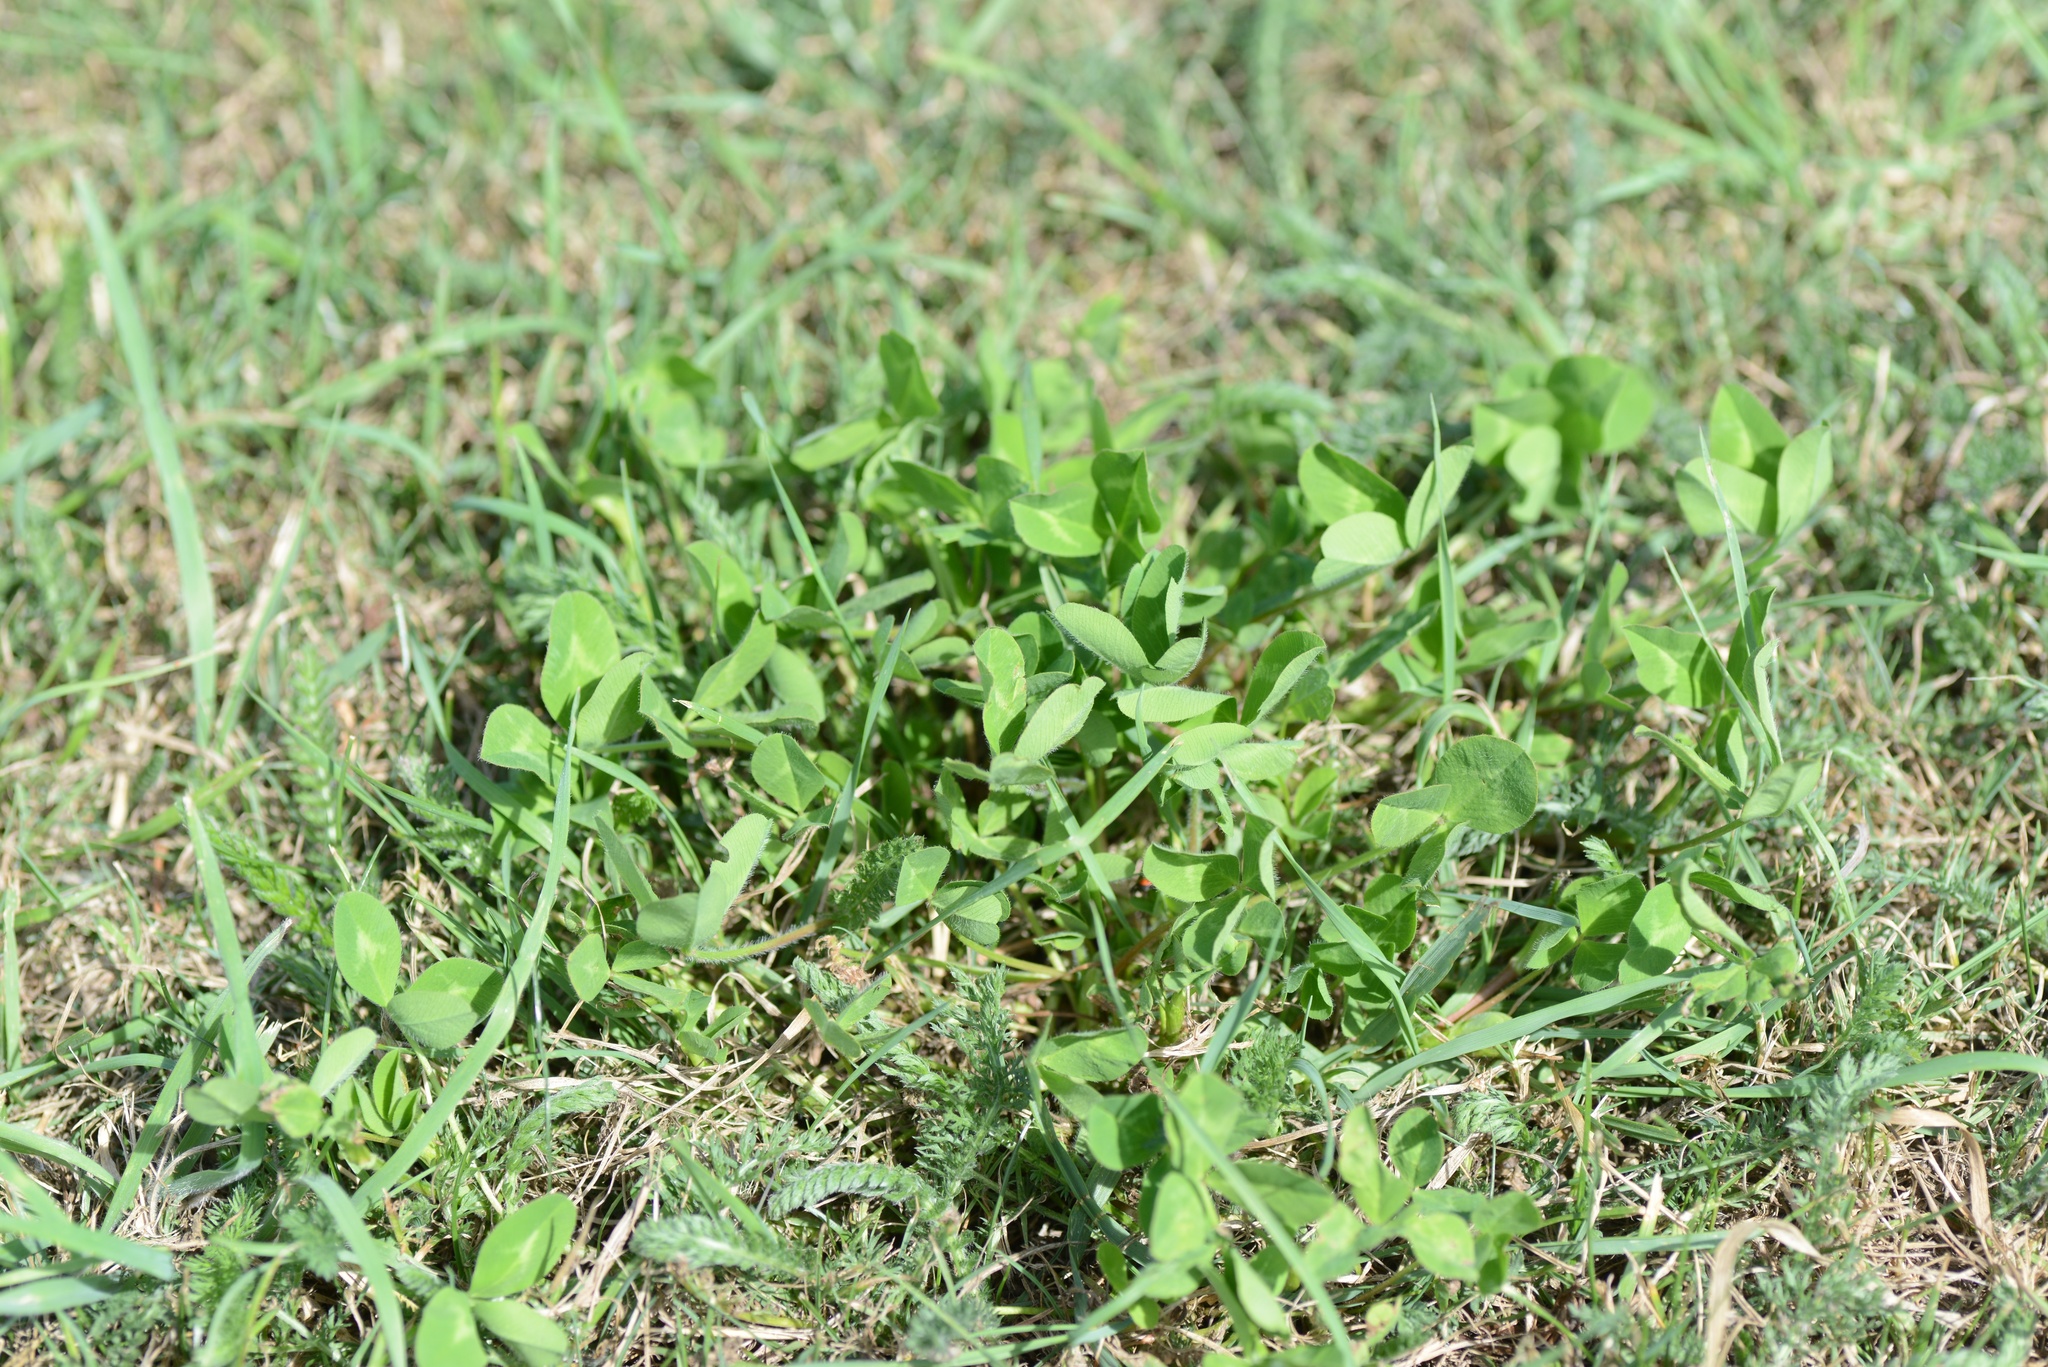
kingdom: Plantae
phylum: Tracheophyta
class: Magnoliopsida
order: Fabales
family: Fabaceae
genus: Trifolium
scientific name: Trifolium pratense
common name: Red clover
